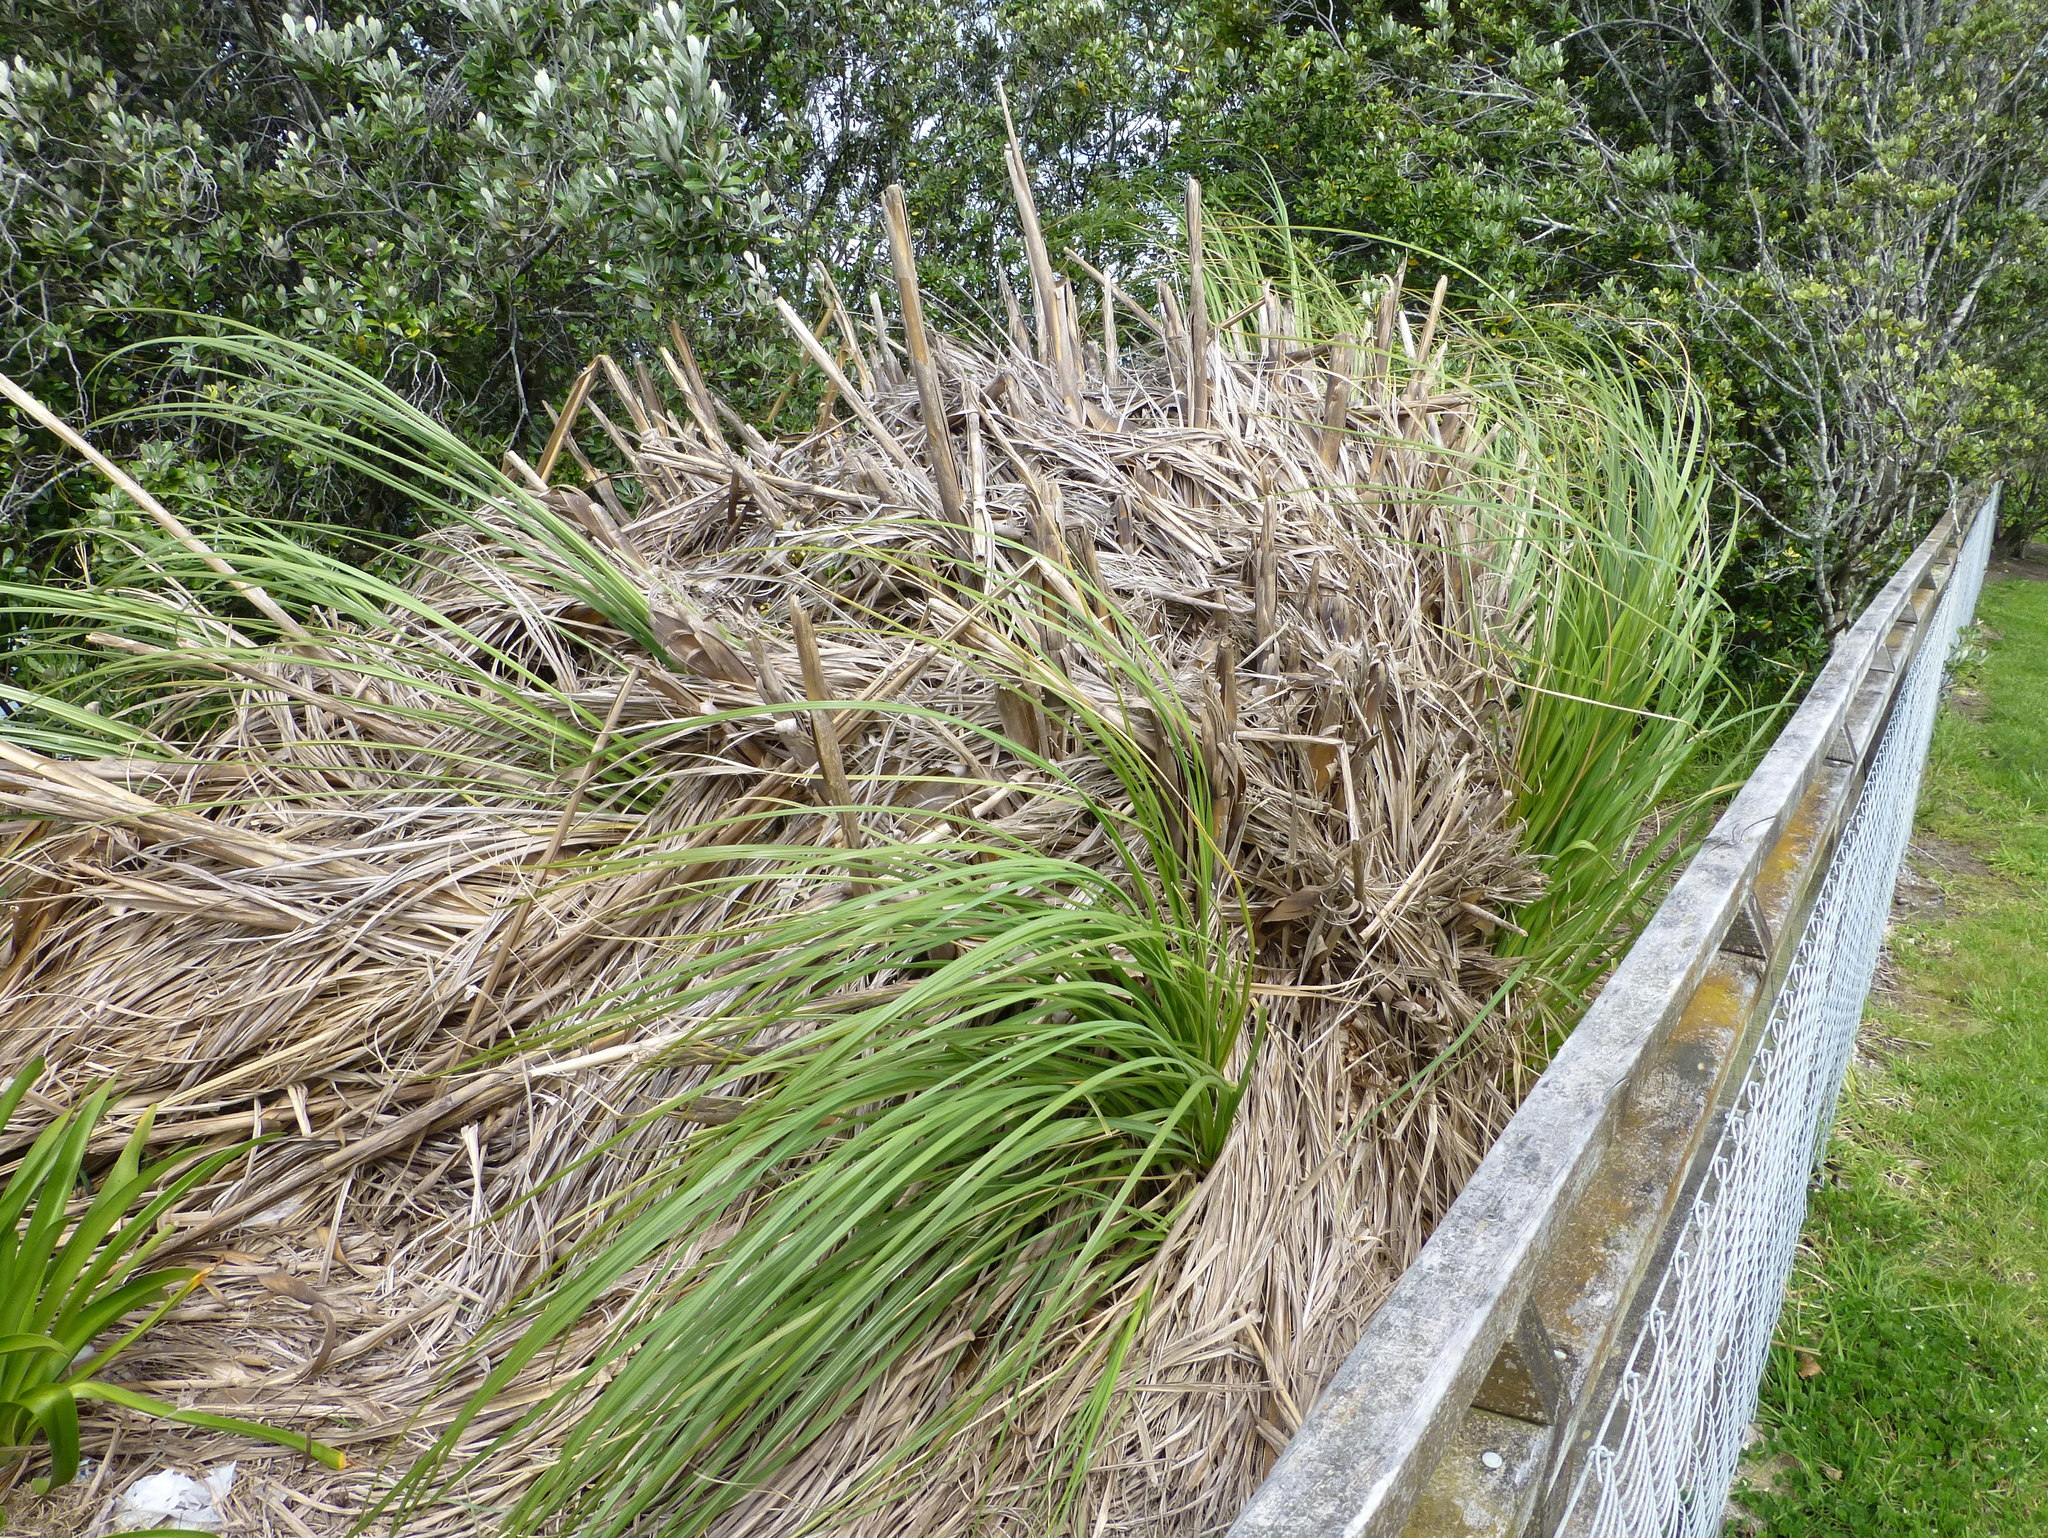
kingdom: Plantae
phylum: Tracheophyta
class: Liliopsida
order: Poales
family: Poaceae
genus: Cortaderia
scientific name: Cortaderia selloana
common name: Uruguayan pampas grass
